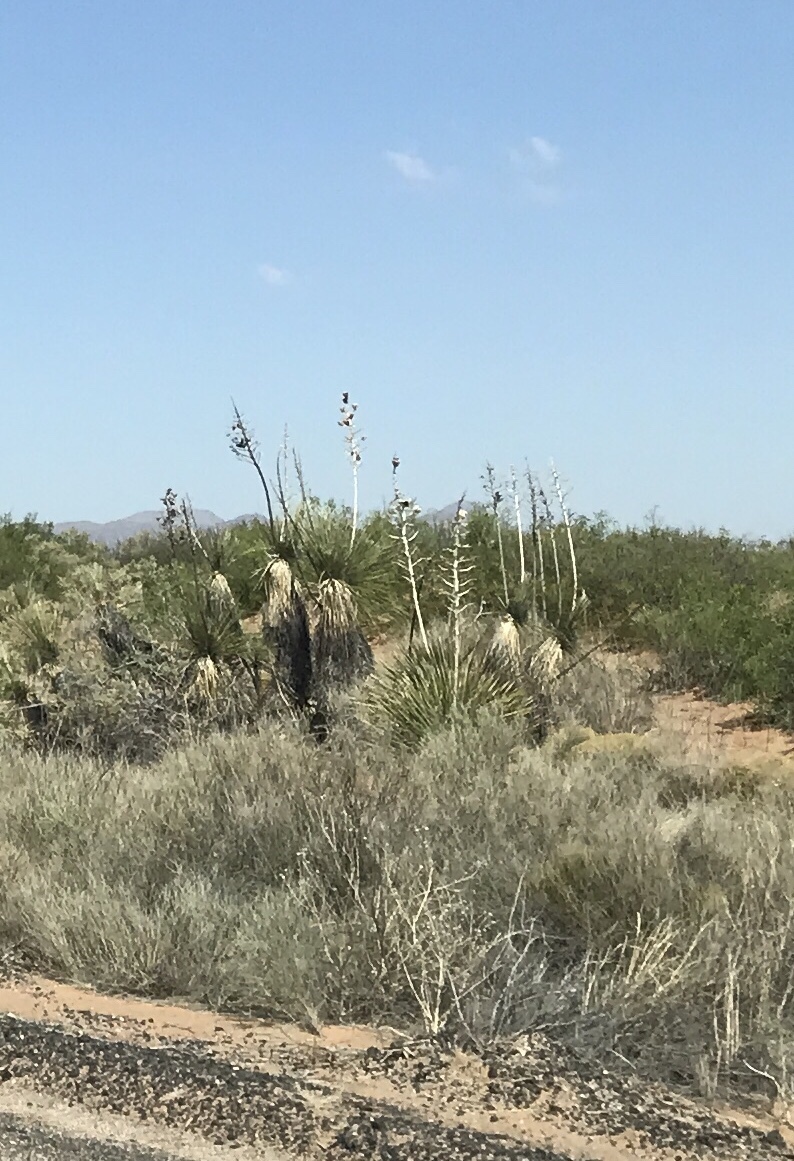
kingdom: Plantae
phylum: Tracheophyta
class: Liliopsida
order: Asparagales
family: Asparagaceae
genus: Yucca
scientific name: Yucca elata
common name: Palmella
